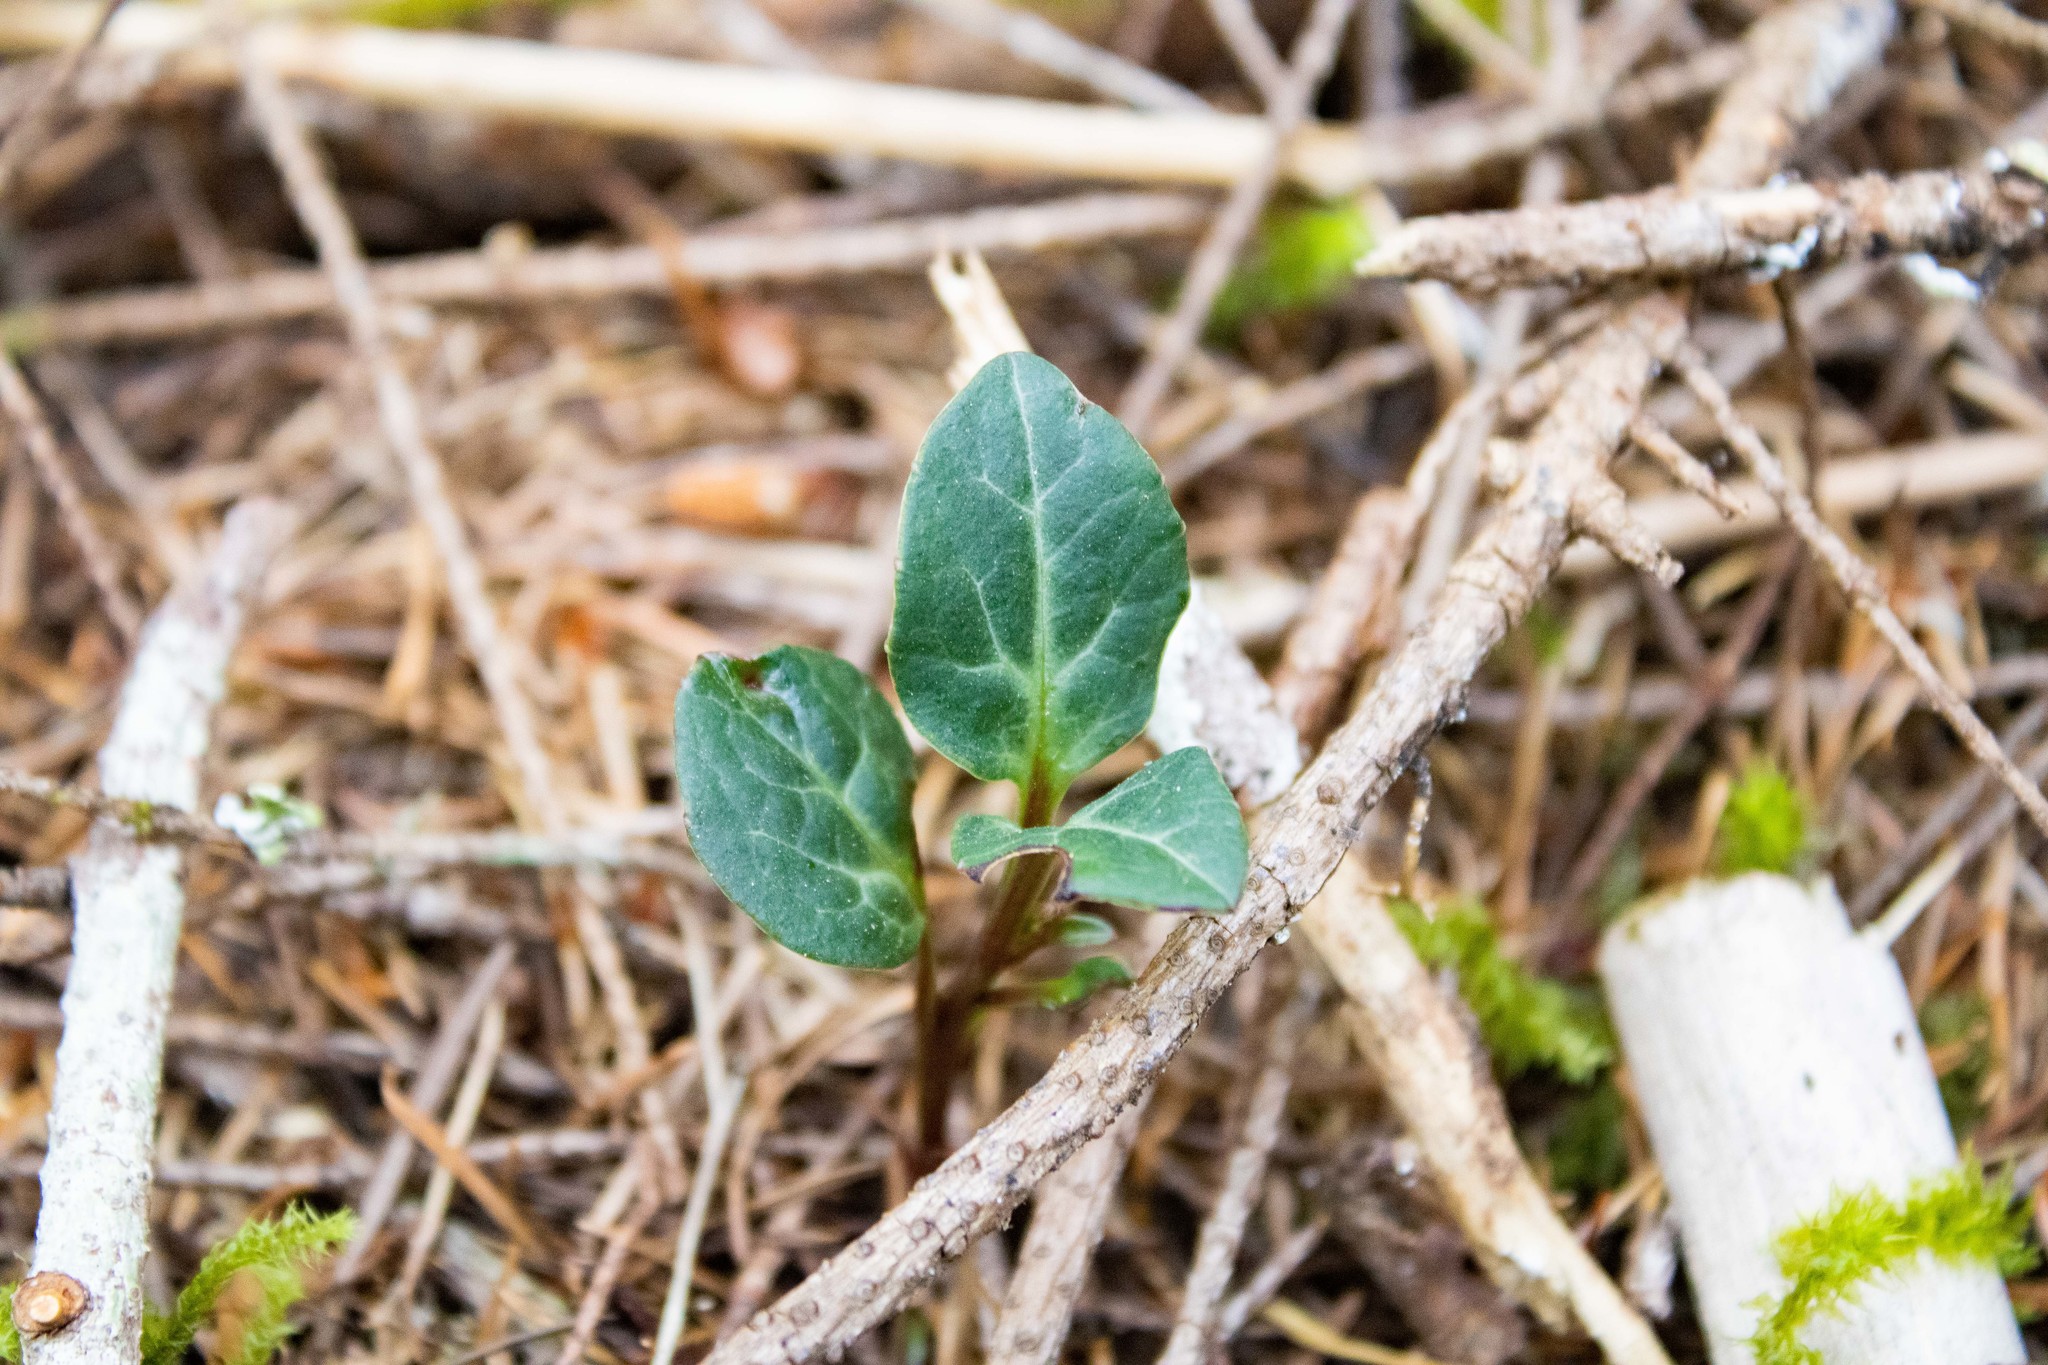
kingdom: Plantae
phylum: Tracheophyta
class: Magnoliopsida
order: Ericales
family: Ericaceae
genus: Pyrola
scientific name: Pyrola picta
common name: White-vein wintergreen
